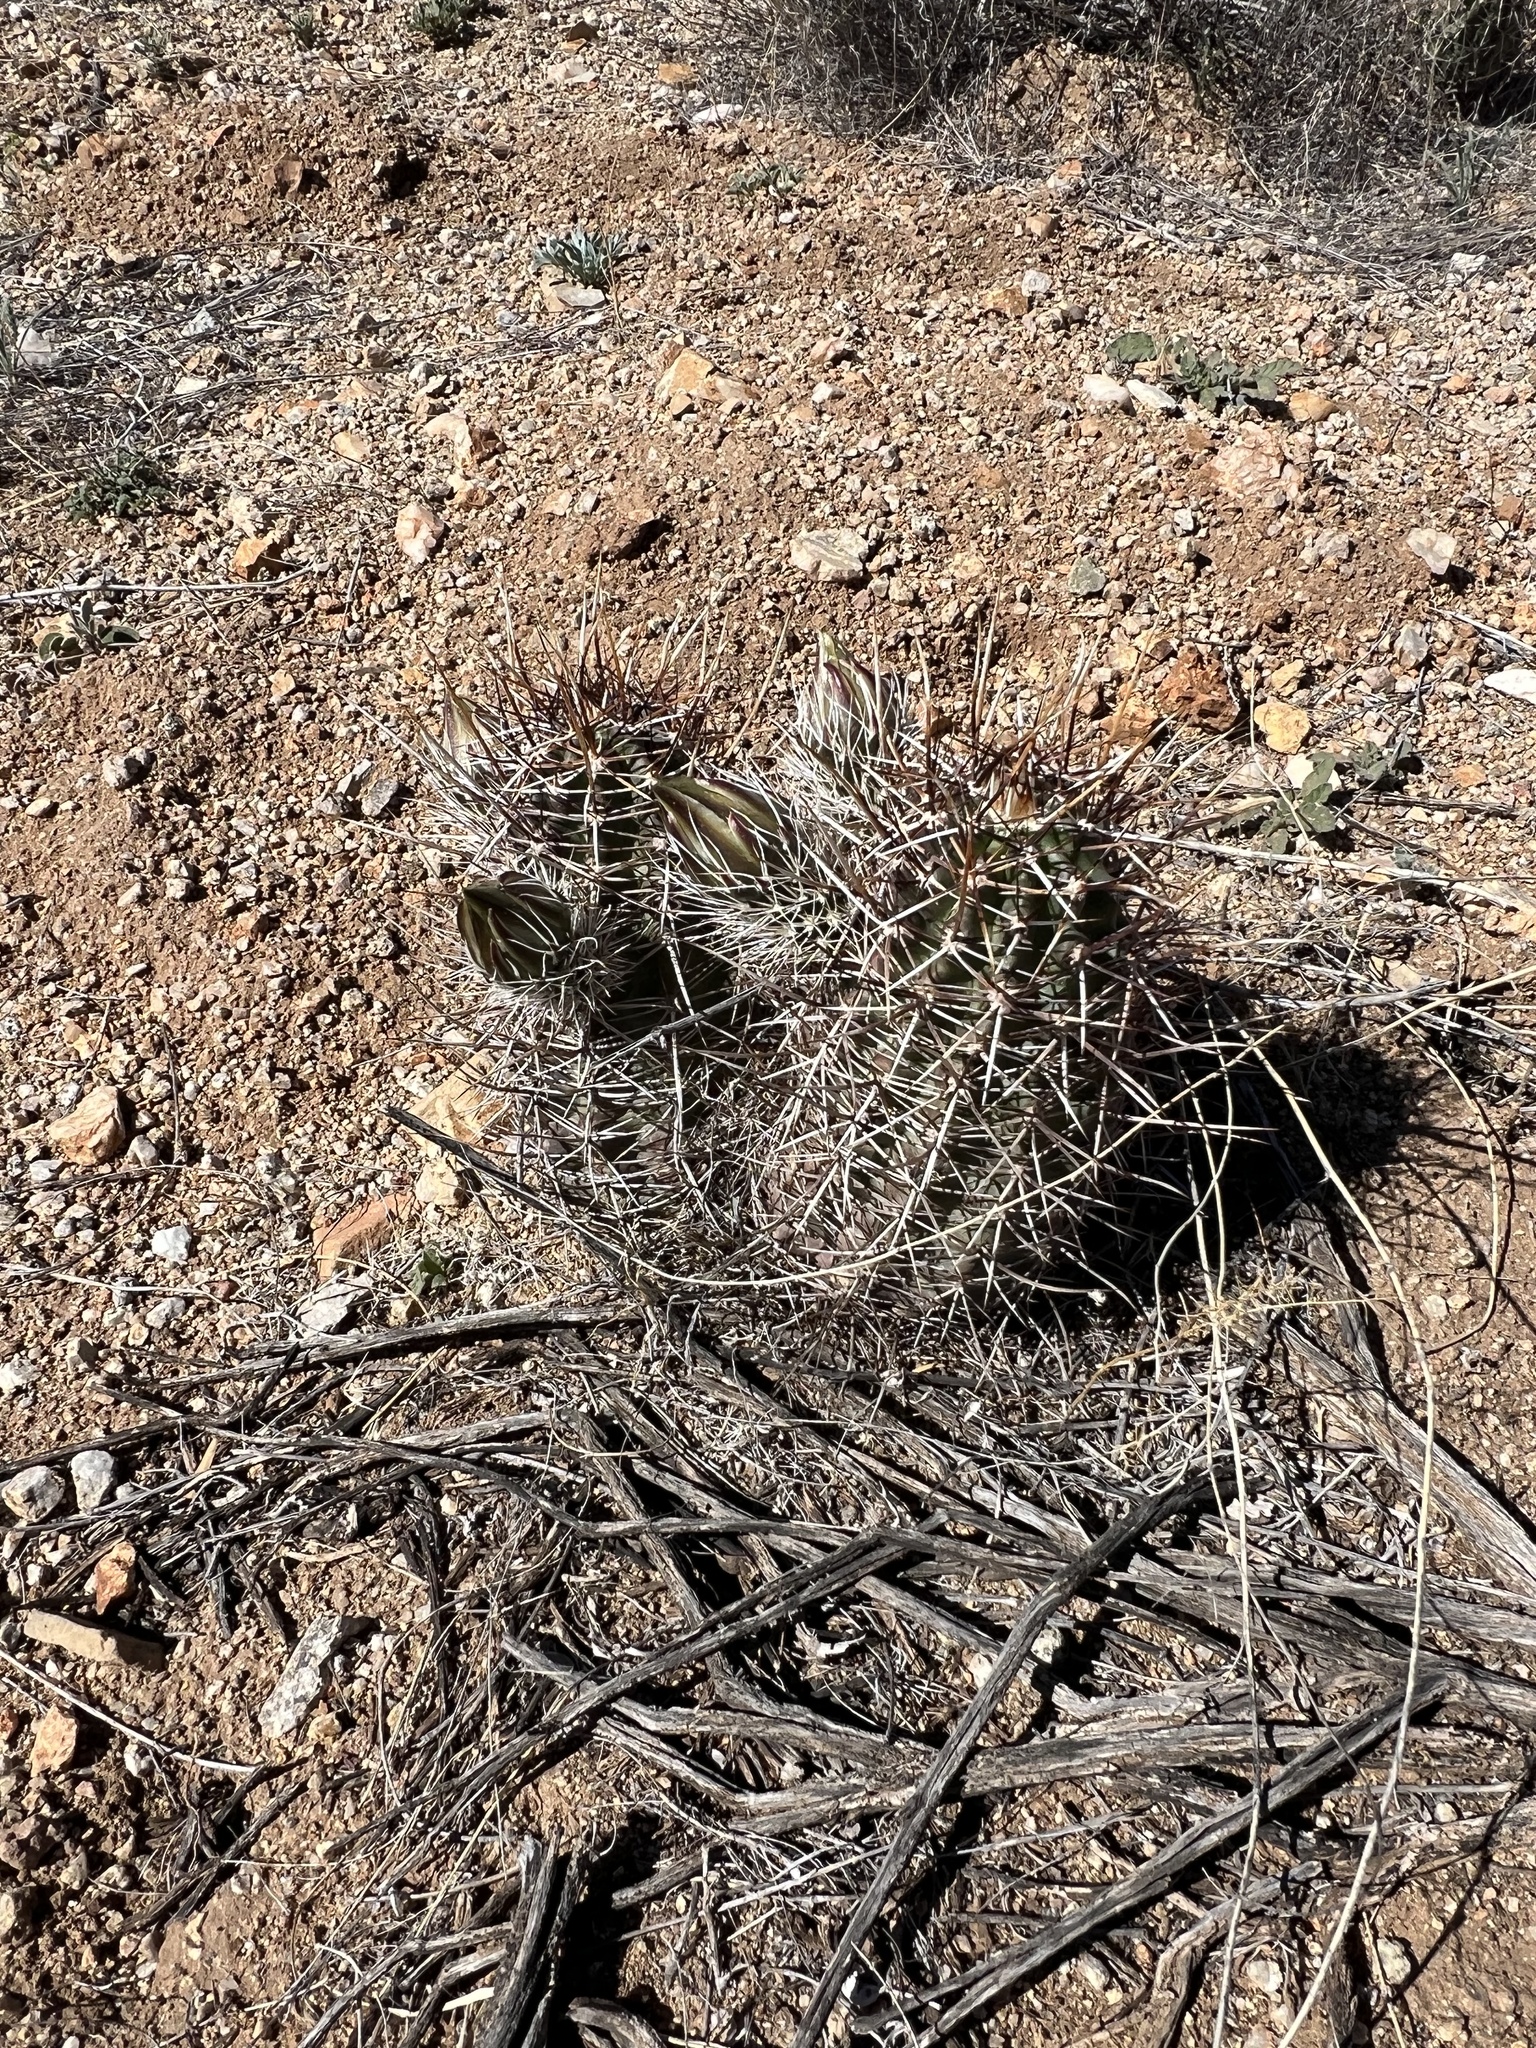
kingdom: Plantae
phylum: Tracheophyta
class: Magnoliopsida
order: Caryophyllales
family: Cactaceae
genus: Echinocereus
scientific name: Echinocereus fendleri
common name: Fendler's hedgehog cactus
